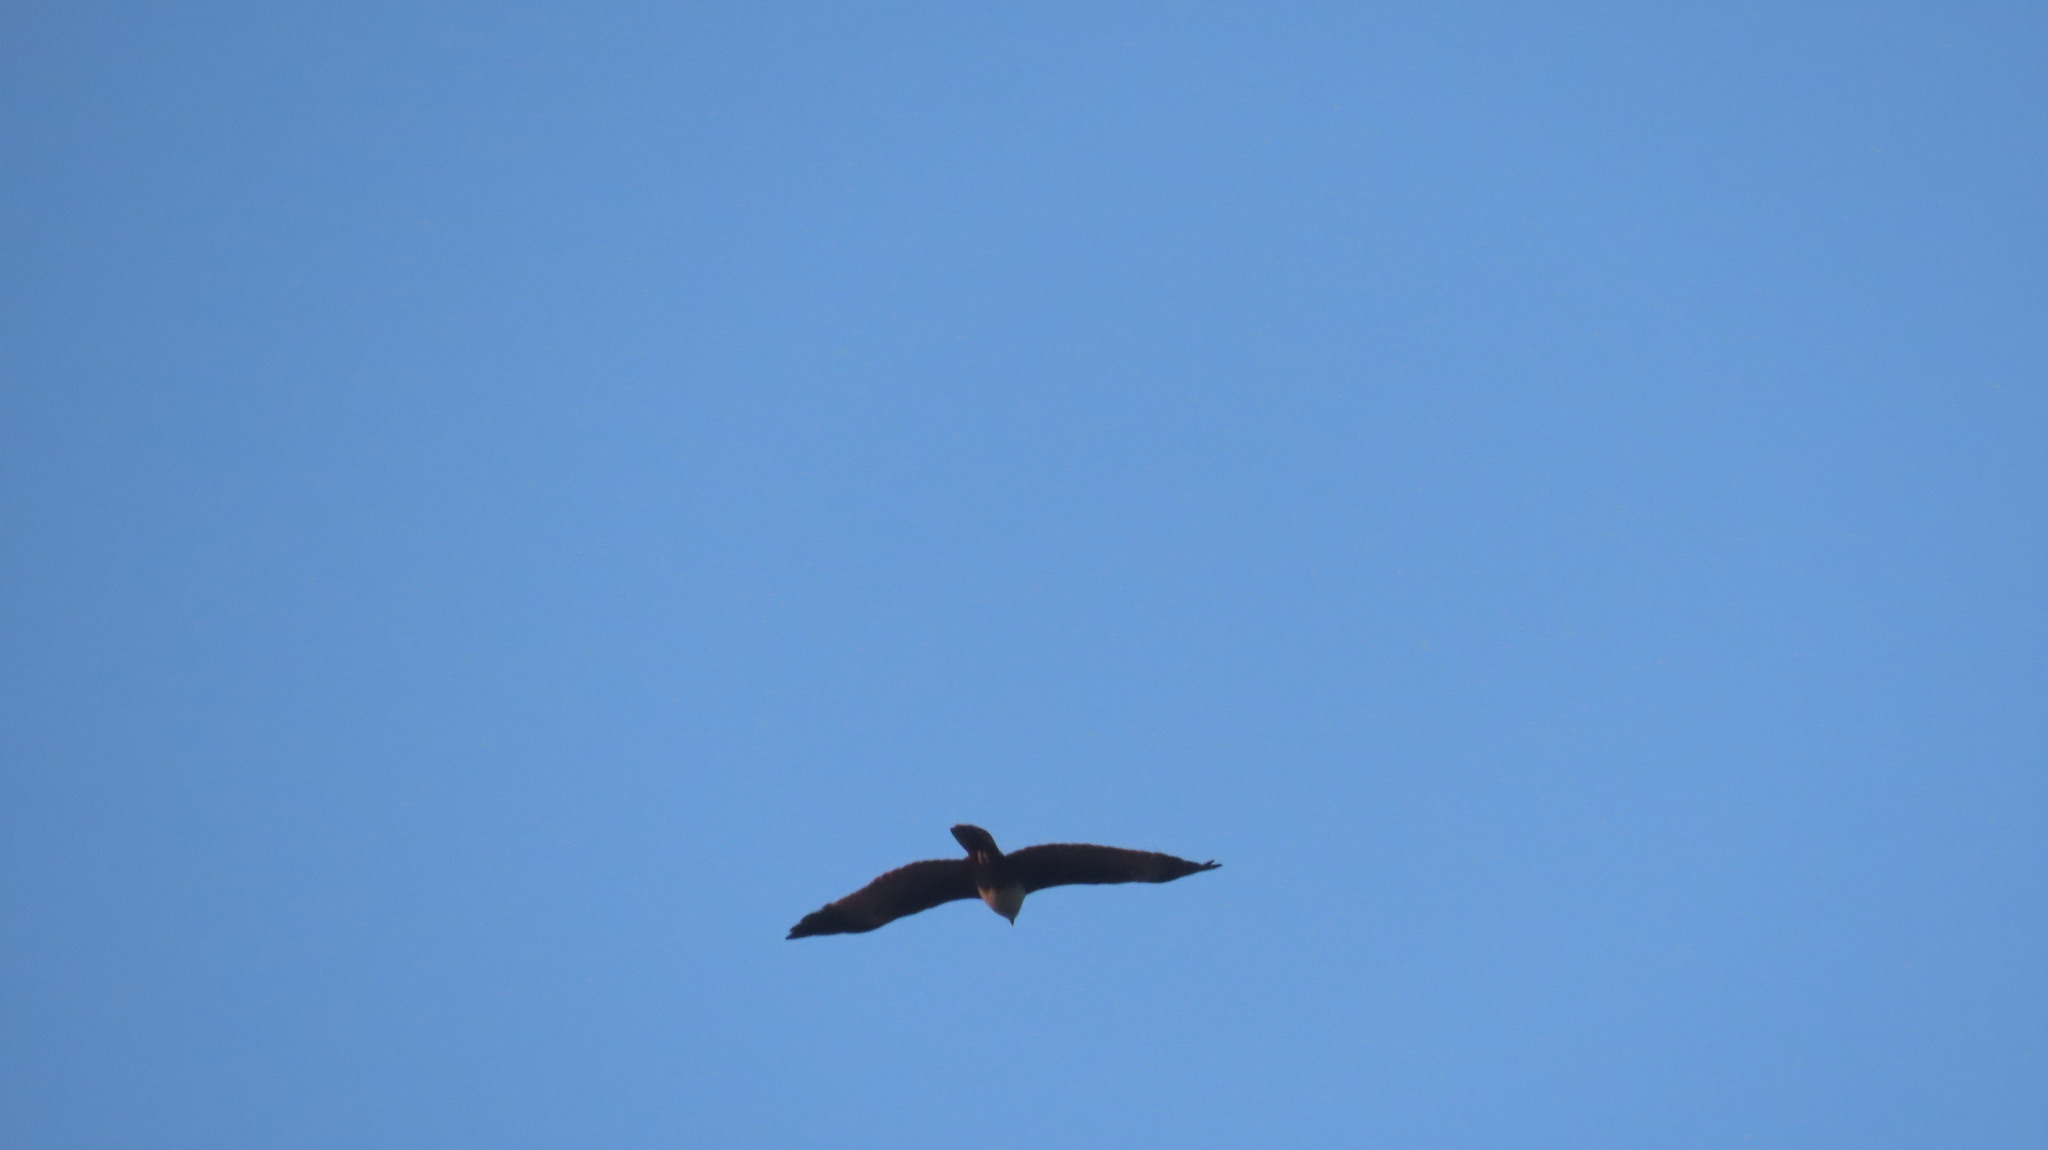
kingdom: Animalia
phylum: Chordata
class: Aves
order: Accipitriformes
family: Accipitridae
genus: Haliastur
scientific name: Haliastur indus
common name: Brahminy kite
